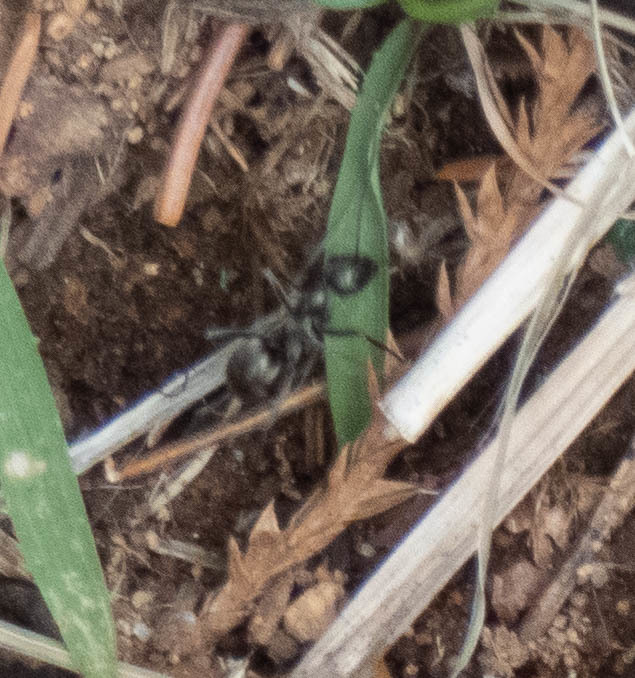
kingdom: Animalia
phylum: Arthropoda
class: Insecta
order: Hymenoptera
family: Formicidae
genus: Formica
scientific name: Formica
